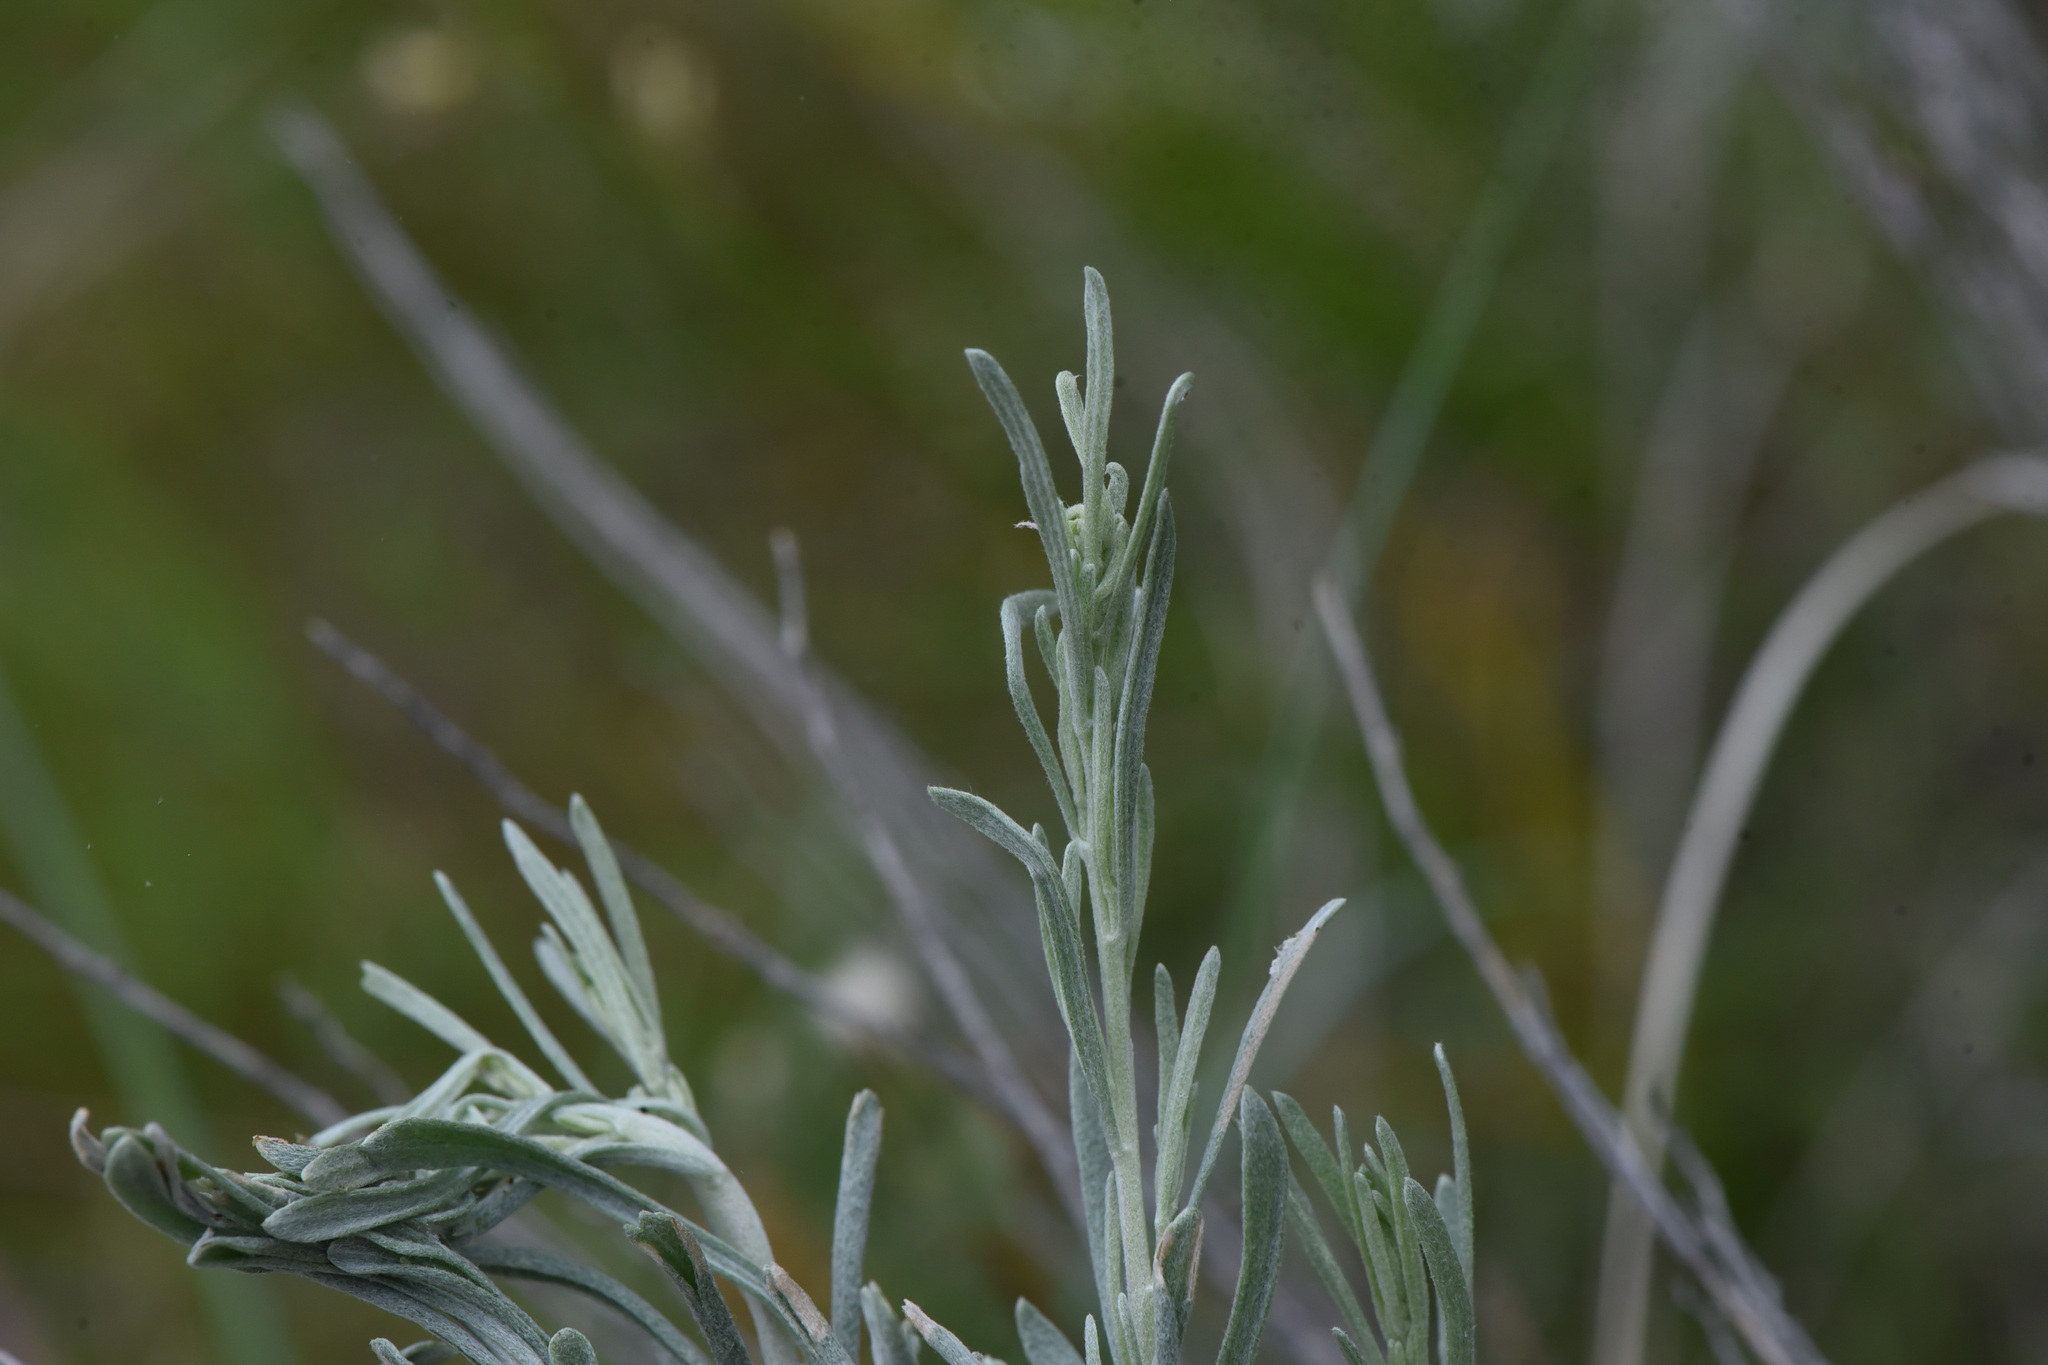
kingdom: Plantae
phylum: Tracheophyta
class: Magnoliopsida
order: Asterales
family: Asteraceae
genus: Artemisia
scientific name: Artemisia tripartita
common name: Three-tip sagebrush
